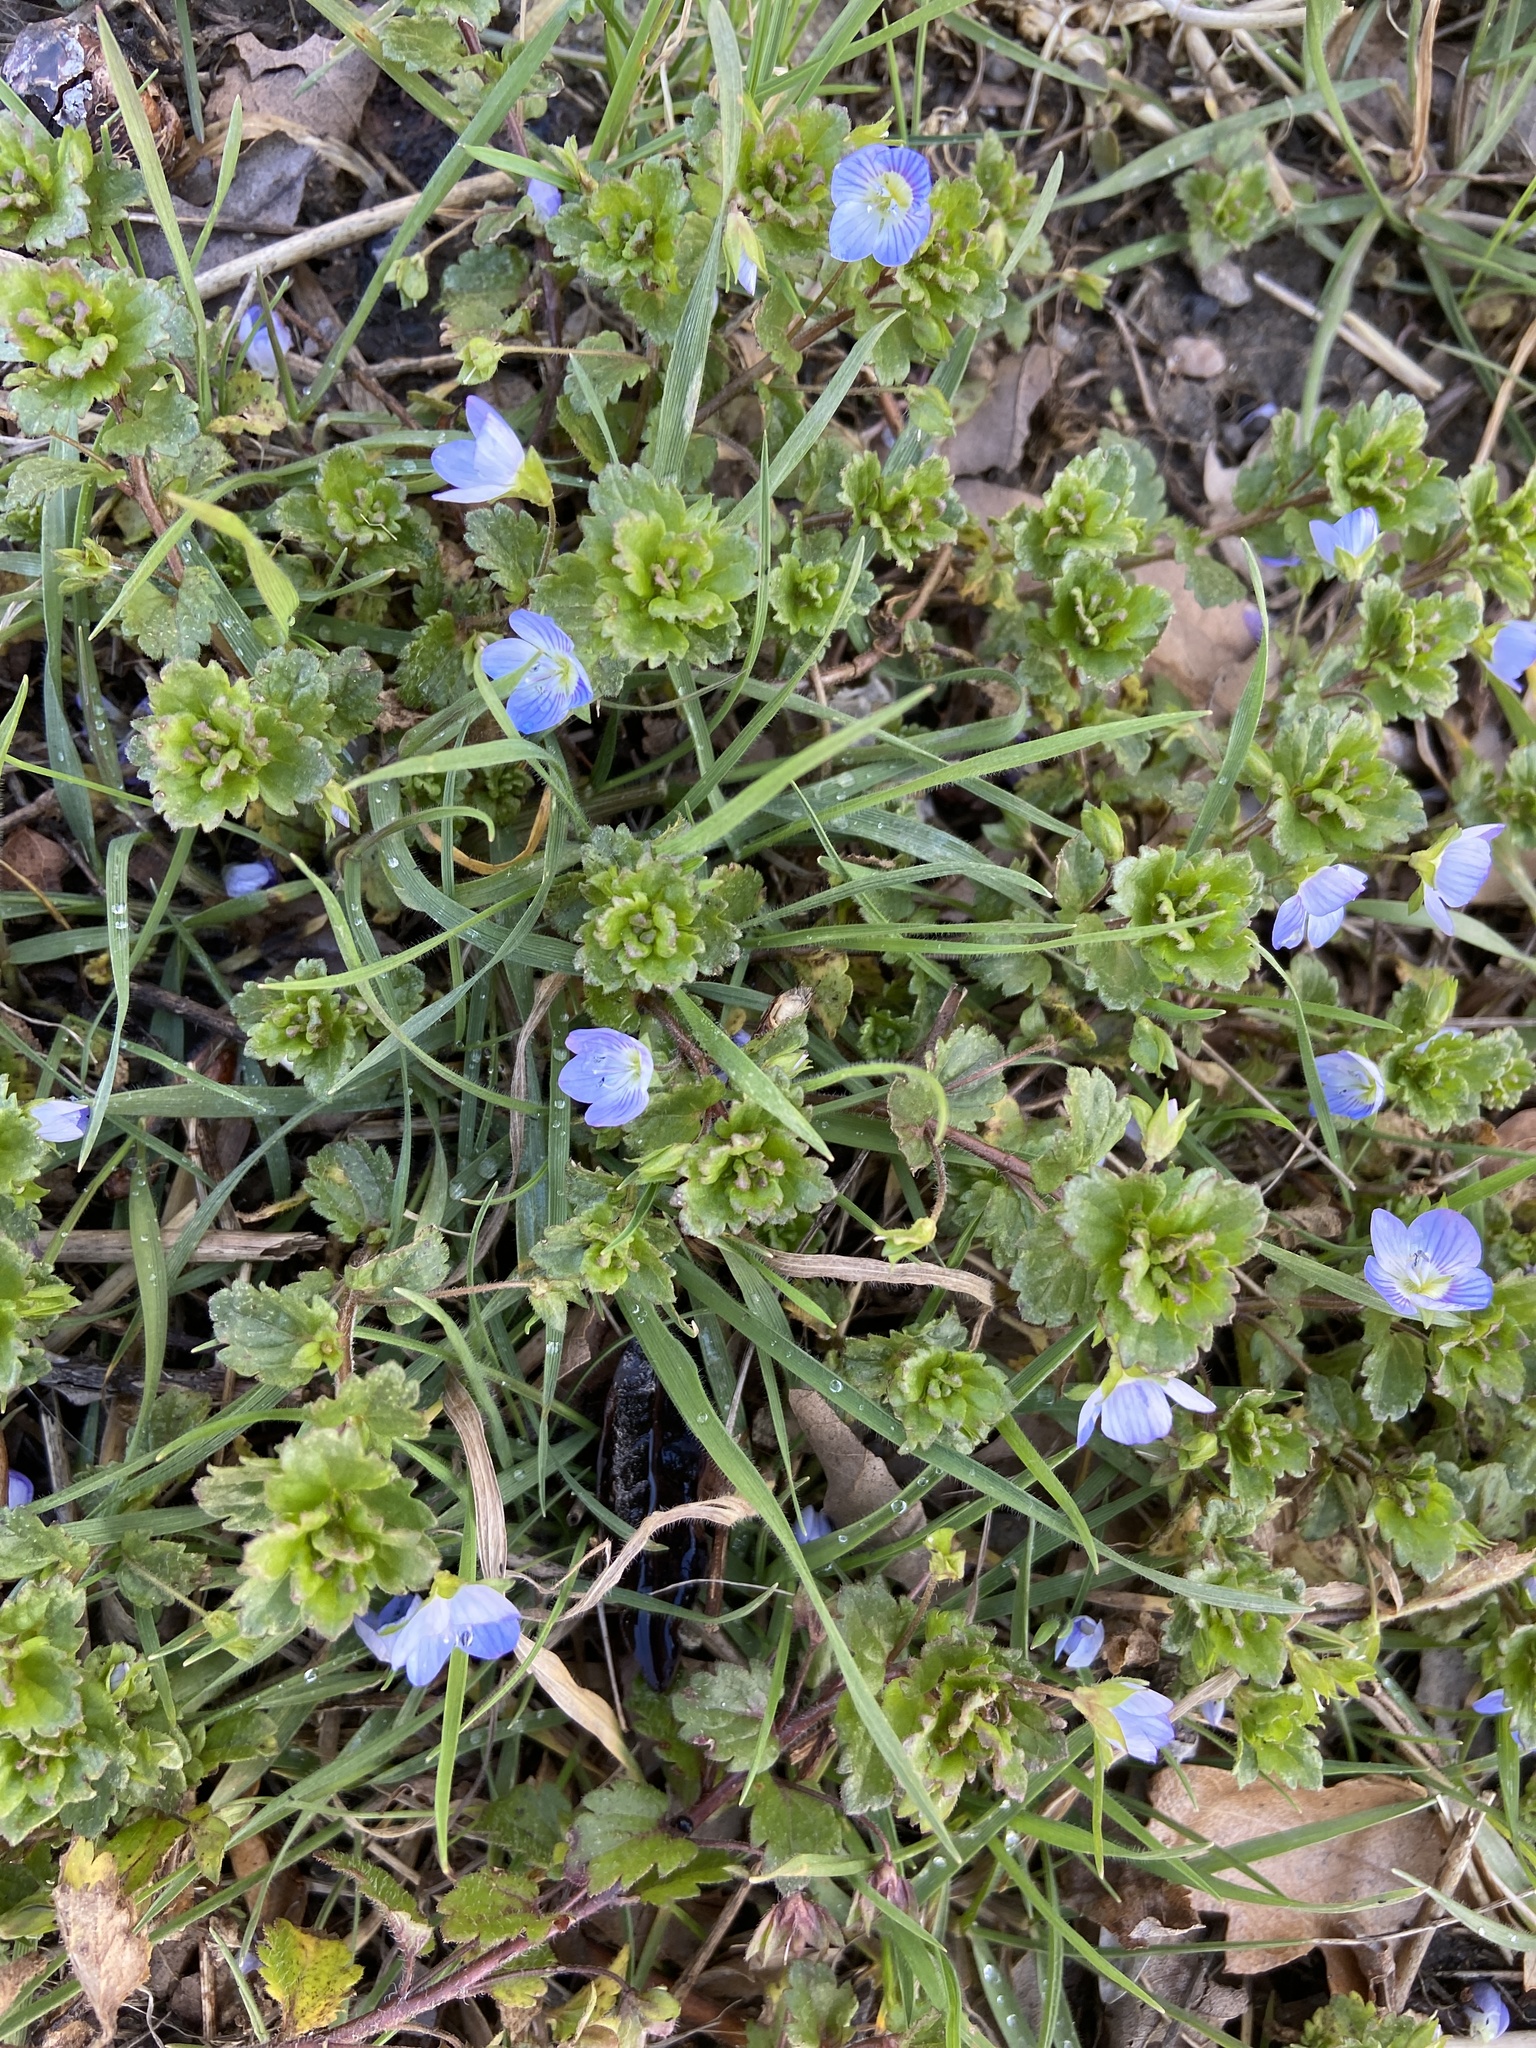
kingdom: Plantae
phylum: Tracheophyta
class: Magnoliopsida
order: Lamiales
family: Plantaginaceae
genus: Veronica
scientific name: Veronica persica
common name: Common field-speedwell
